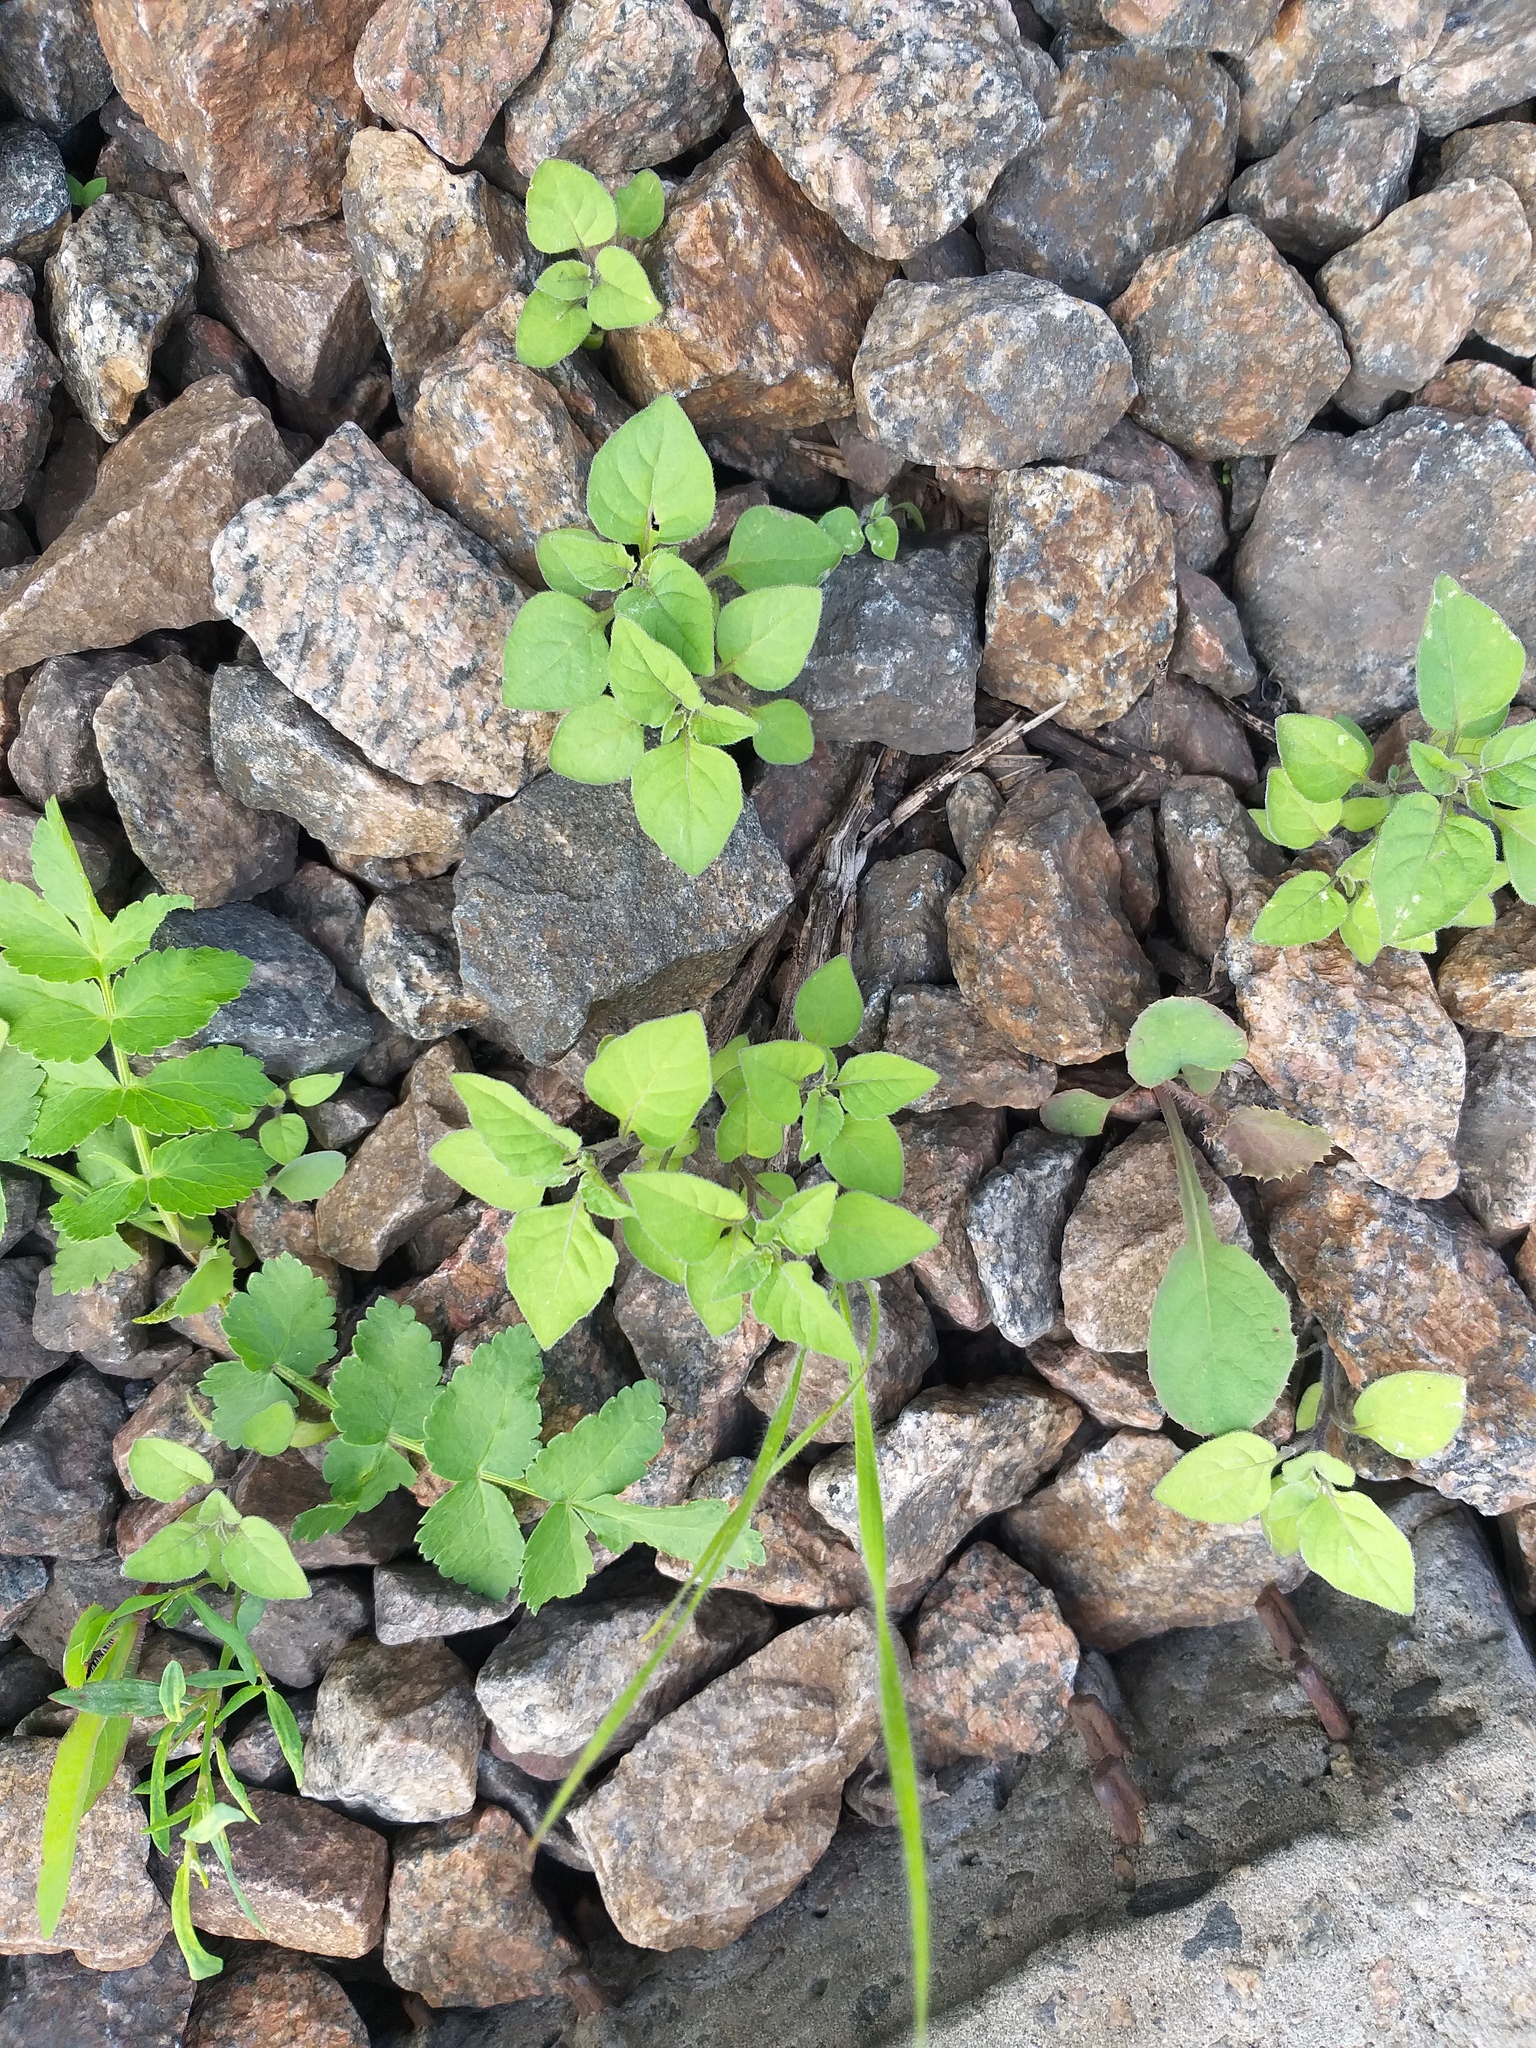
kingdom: Plantae
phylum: Tracheophyta
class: Magnoliopsida
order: Solanales
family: Solanaceae
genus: Solanum
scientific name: Solanum nigrum
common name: Black nightshade
